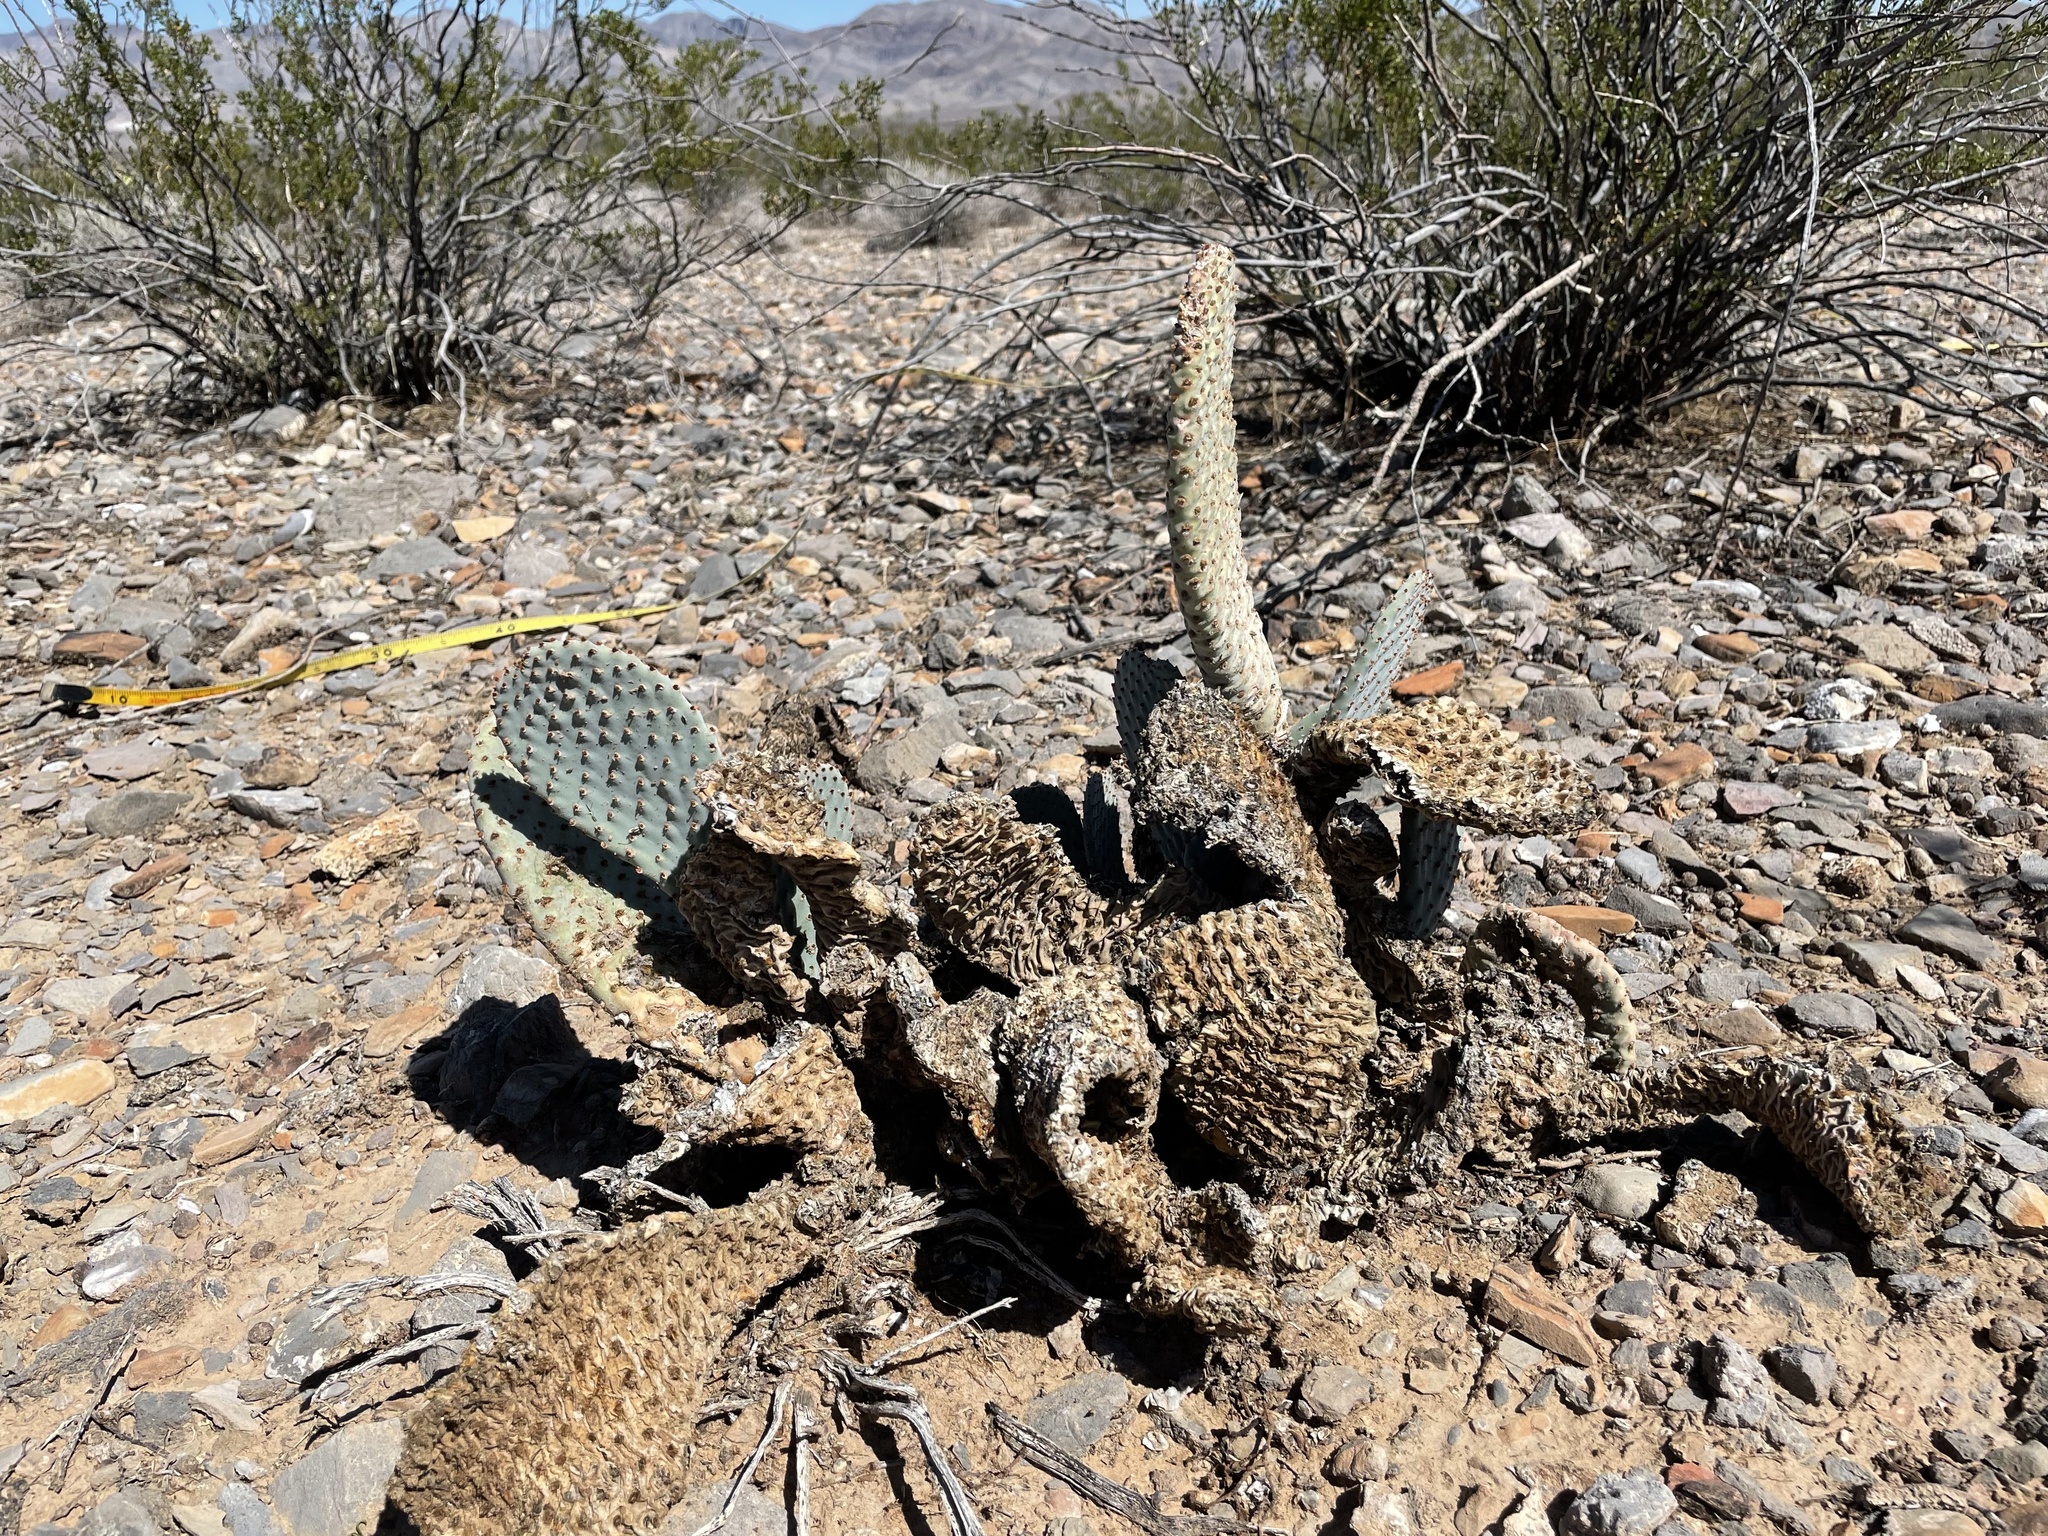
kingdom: Plantae
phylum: Tracheophyta
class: Magnoliopsida
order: Caryophyllales
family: Cactaceae
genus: Opuntia
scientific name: Opuntia basilaris
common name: Beavertail prickly-pear
